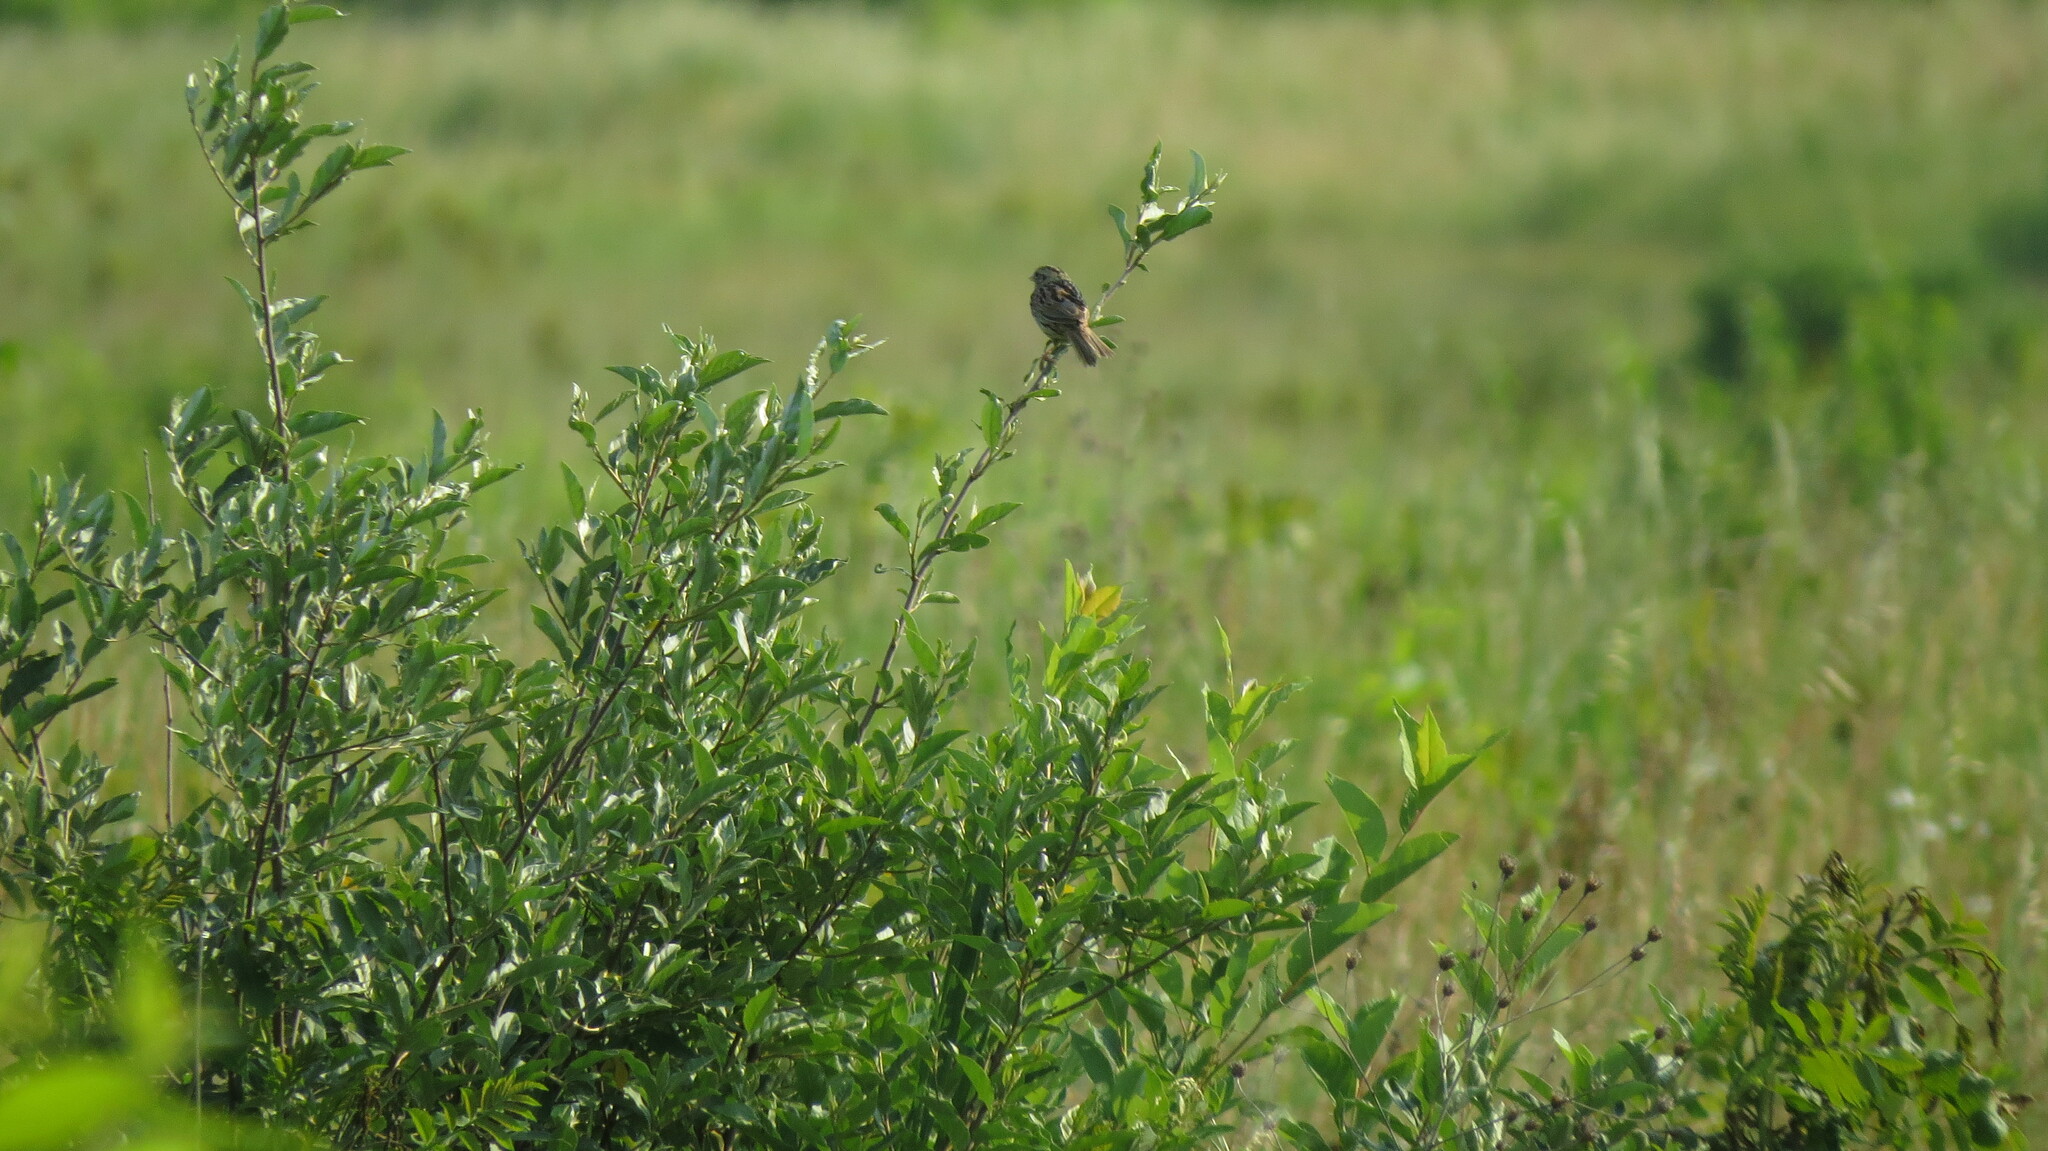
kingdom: Animalia
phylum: Chordata
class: Aves
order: Passeriformes
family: Passerellidae
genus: Centronyx
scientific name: Centronyx henslowii
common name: Henslow's sparrow
